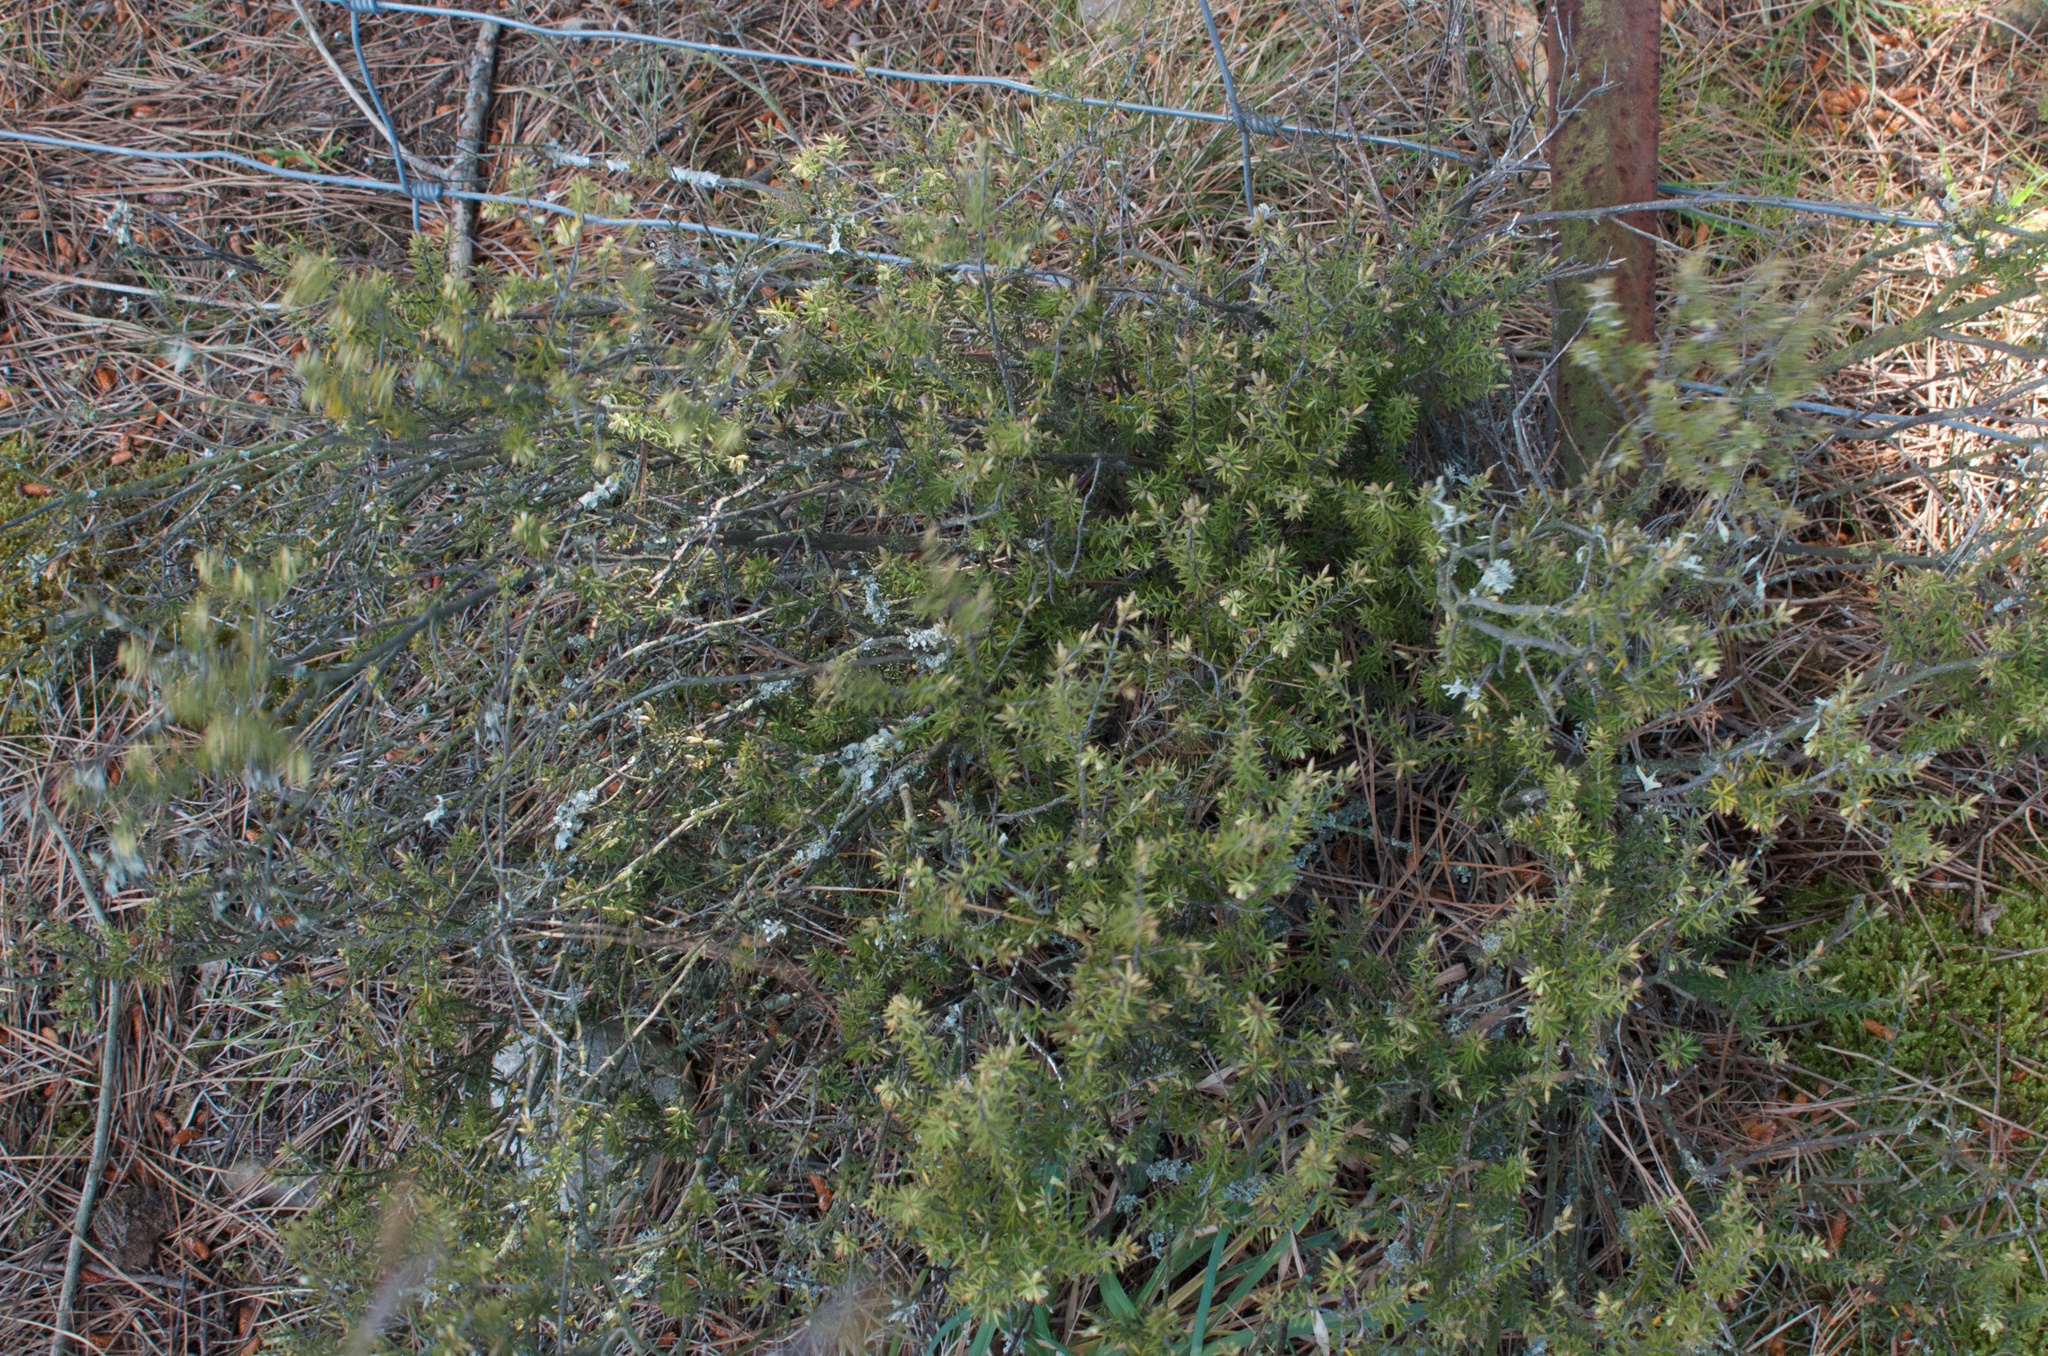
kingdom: Plantae
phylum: Tracheophyta
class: Magnoliopsida
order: Ericales
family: Ericaceae
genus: Leptecophylla
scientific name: Leptecophylla juniperina
